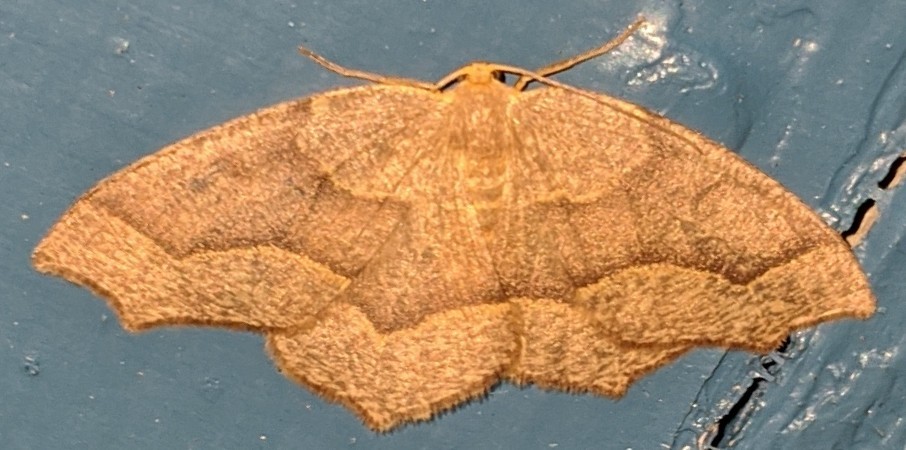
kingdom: Animalia
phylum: Arthropoda
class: Insecta
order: Lepidoptera
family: Geometridae
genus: Lambdina
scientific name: Lambdina fiscellaria
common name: Hemlock looper
